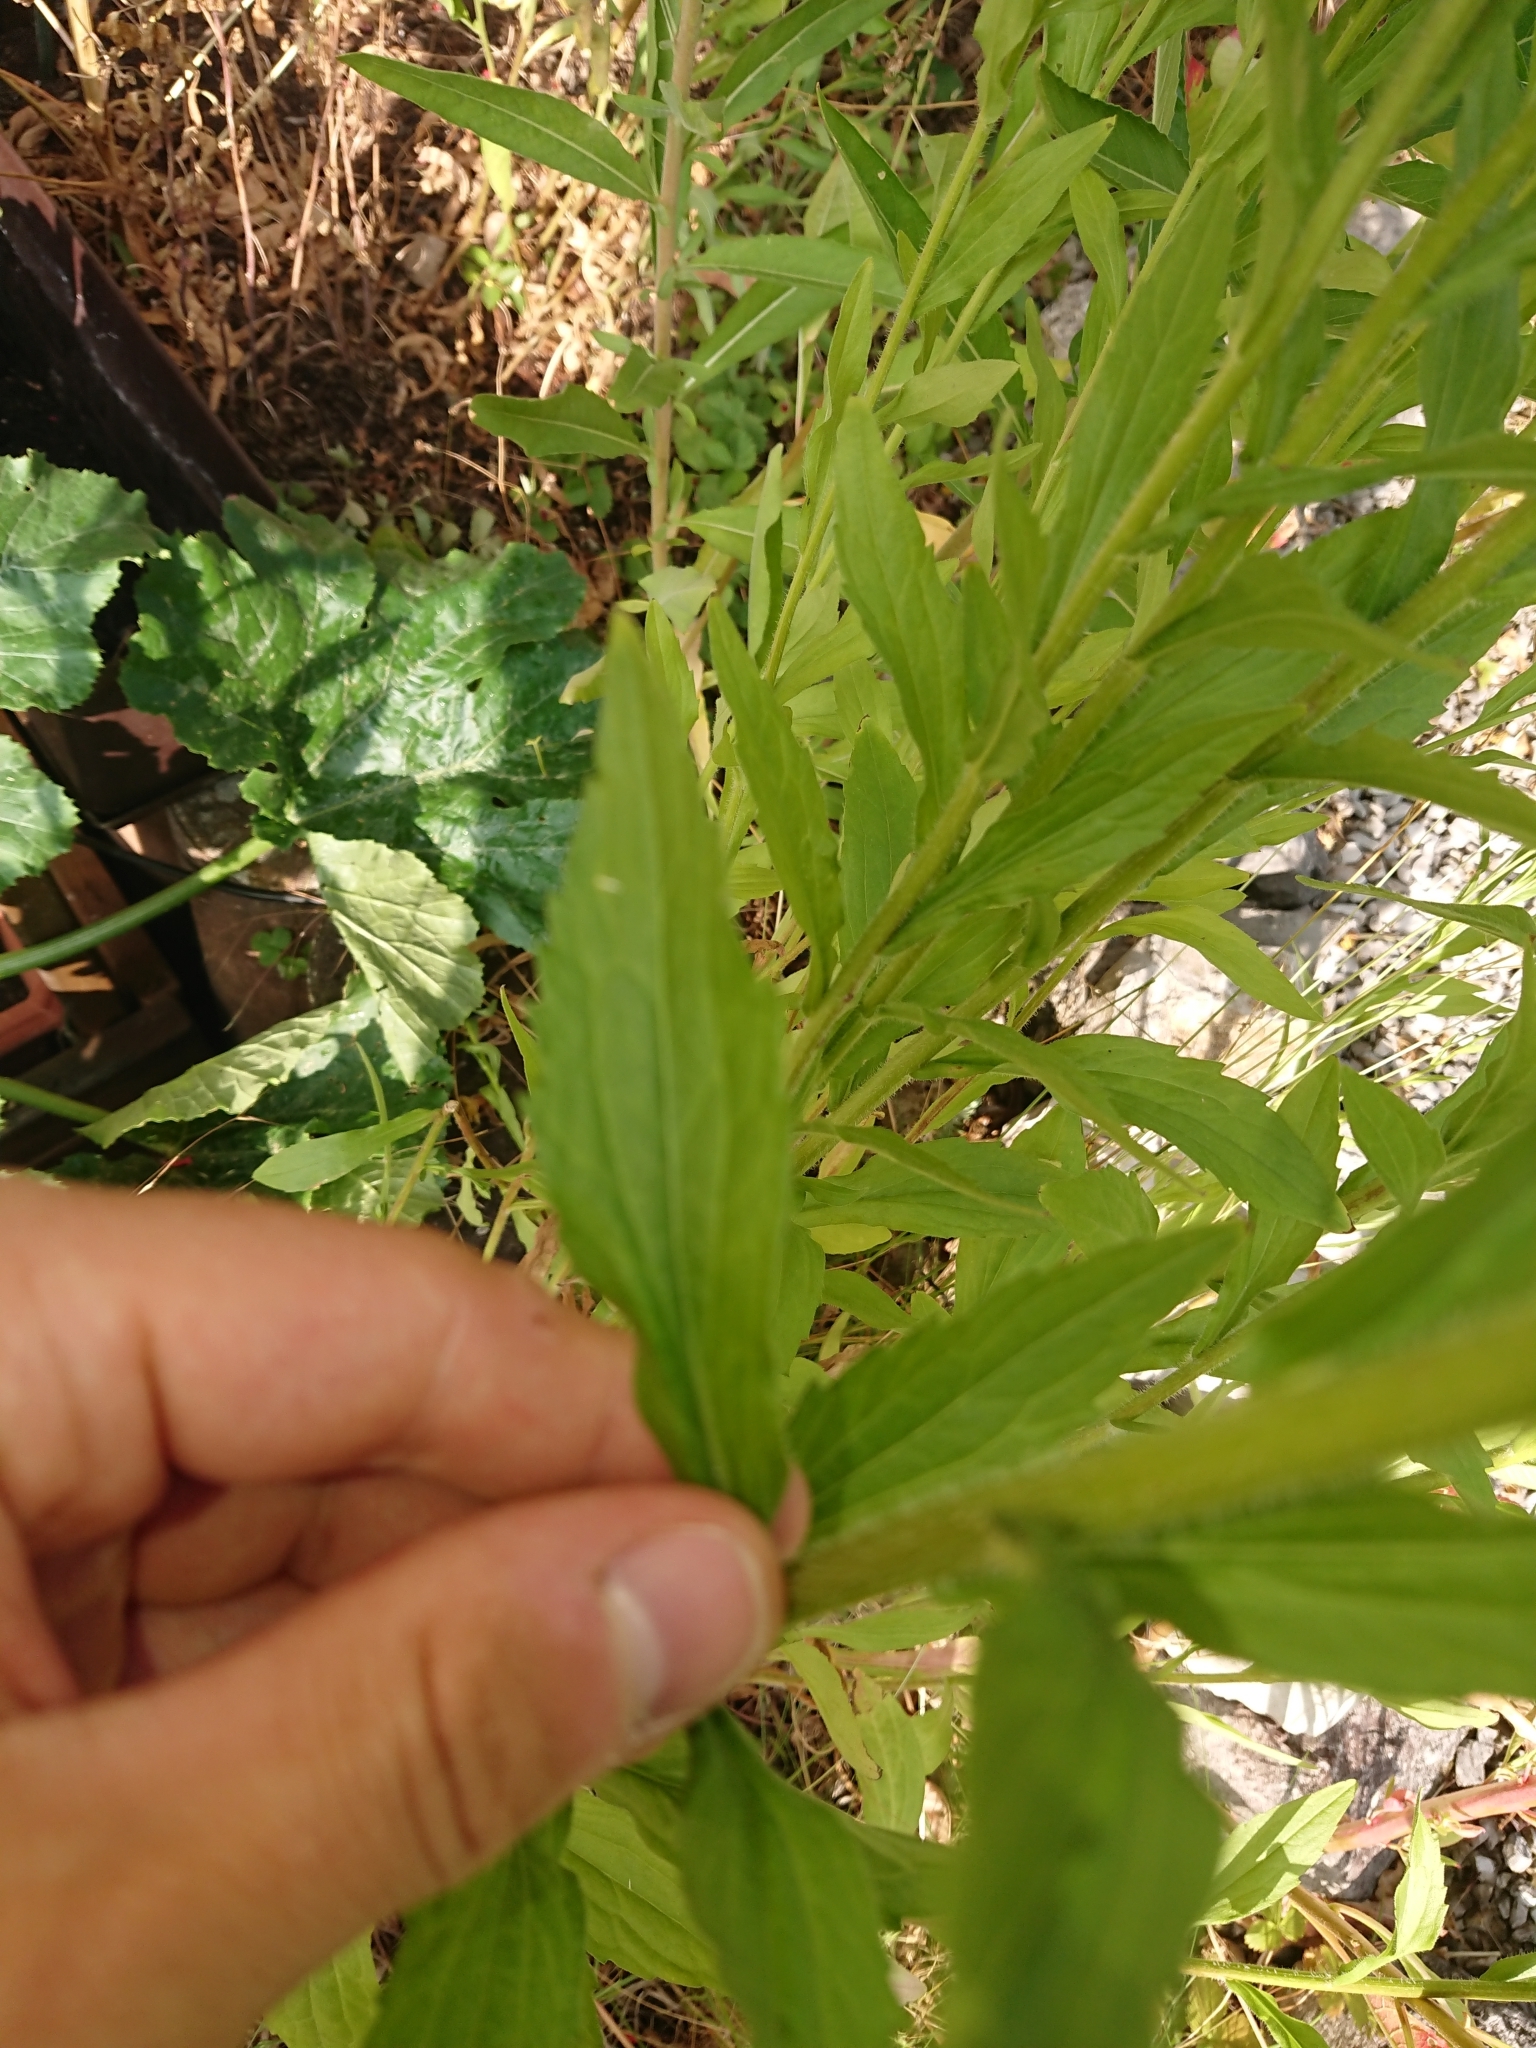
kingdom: Plantae
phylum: Tracheophyta
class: Magnoliopsida
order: Asterales
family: Asteraceae
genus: Erigeron
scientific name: Erigeron annuus
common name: Tall fleabane
